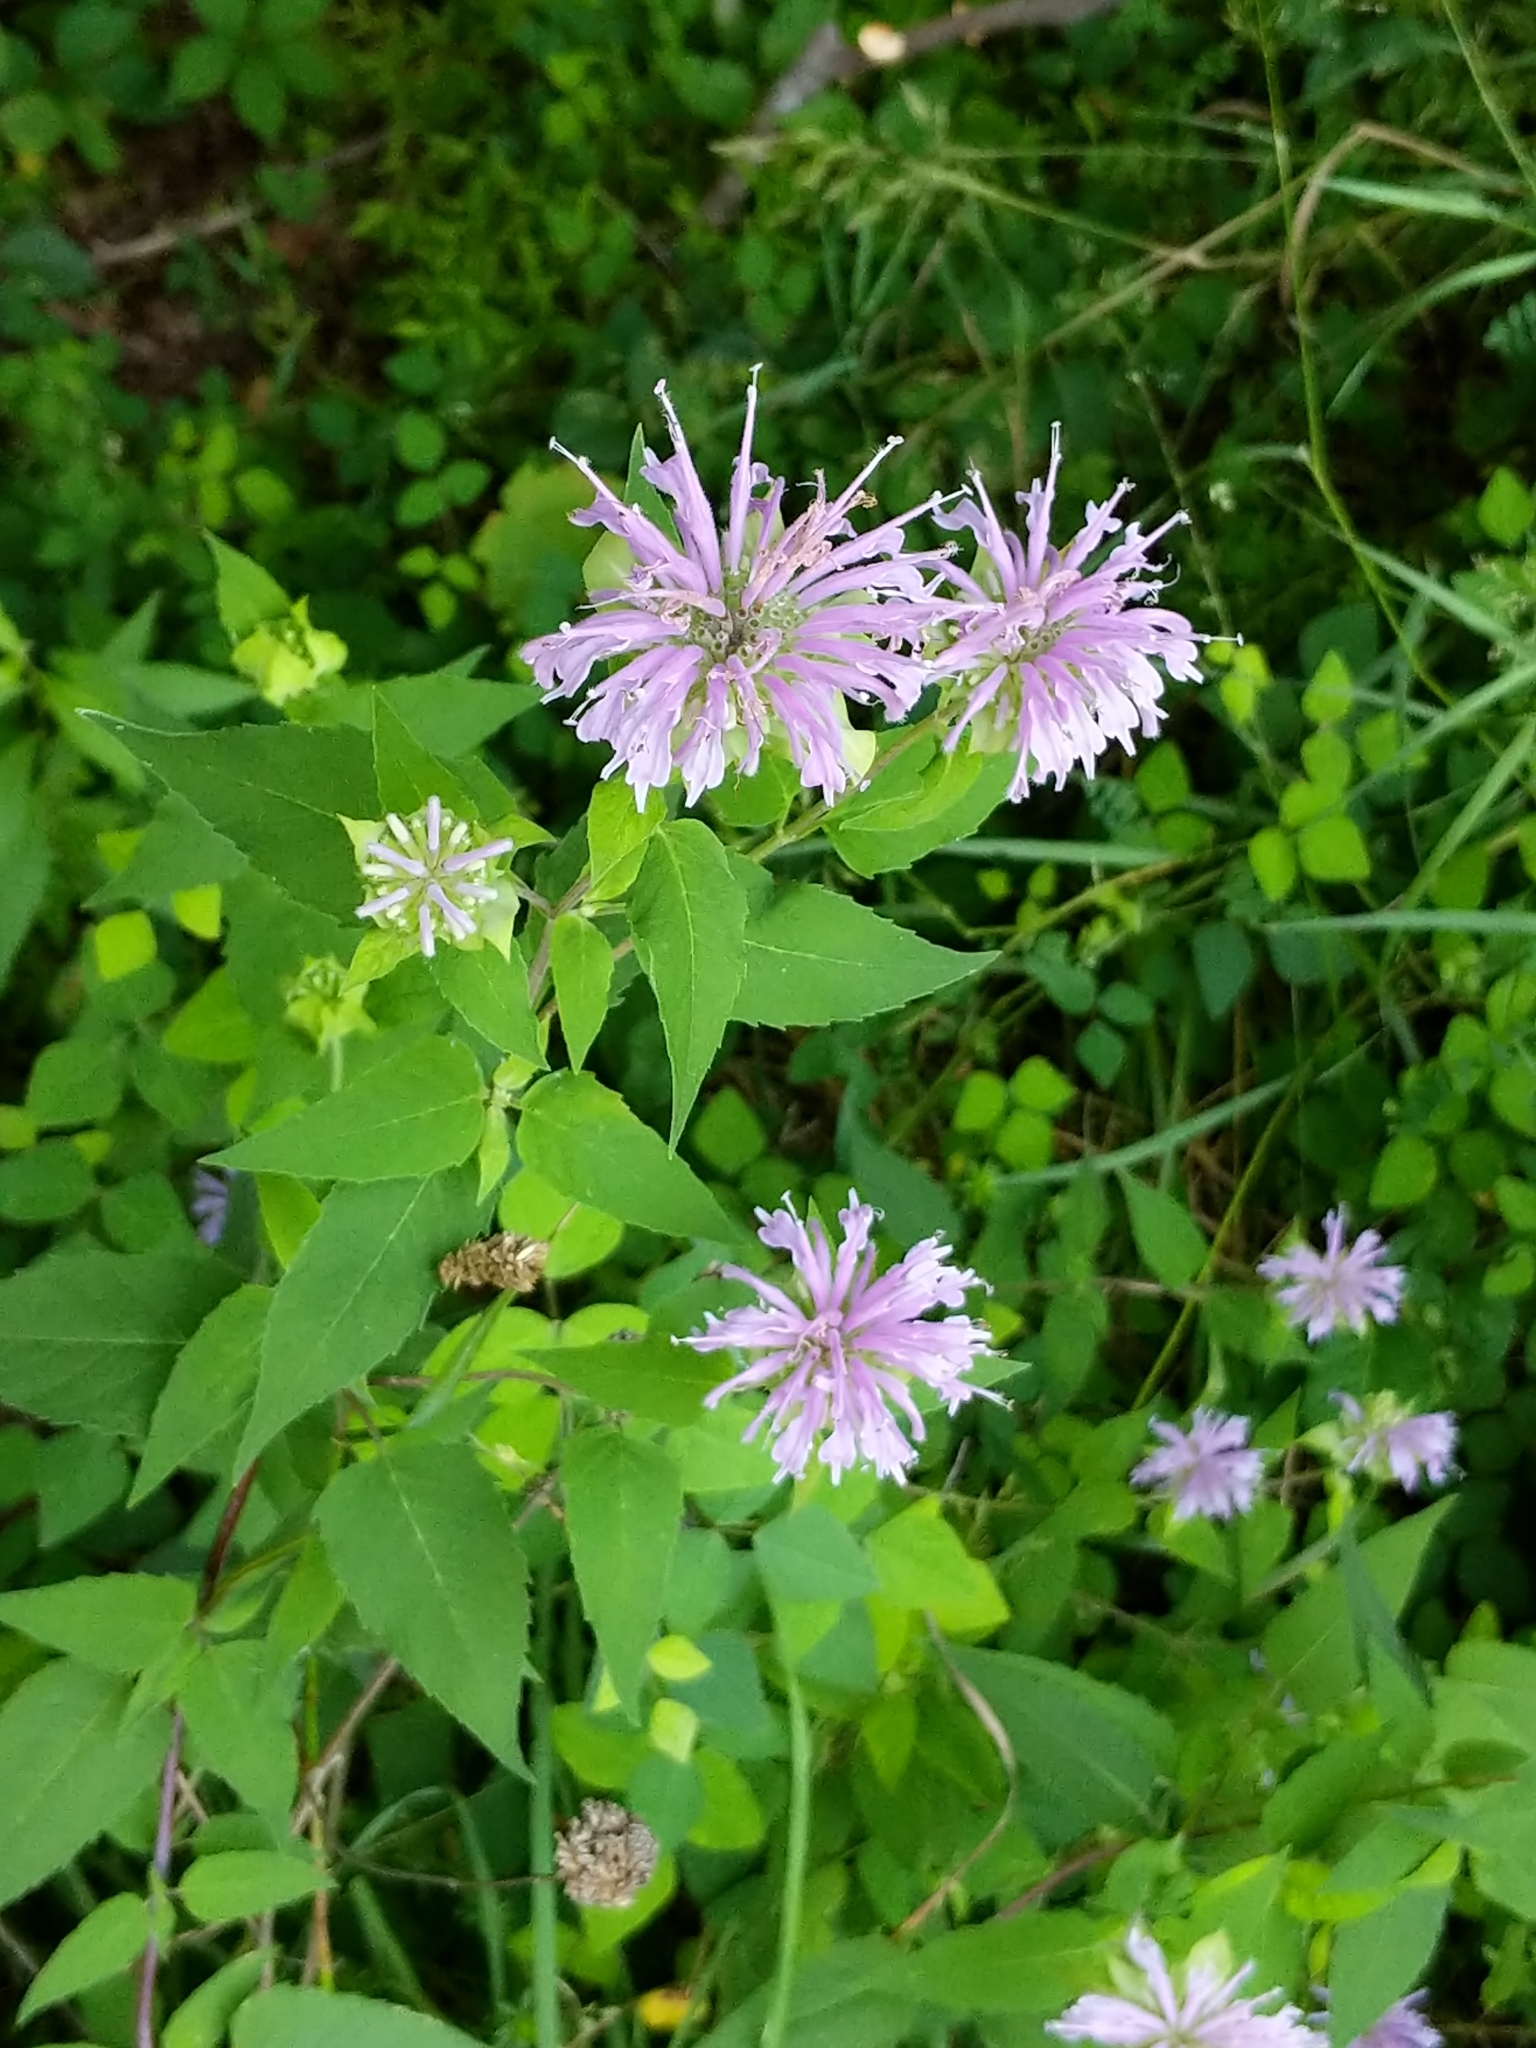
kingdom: Plantae
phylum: Tracheophyta
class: Magnoliopsida
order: Lamiales
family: Lamiaceae
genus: Monarda
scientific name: Monarda fistulosa
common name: Purple beebalm
